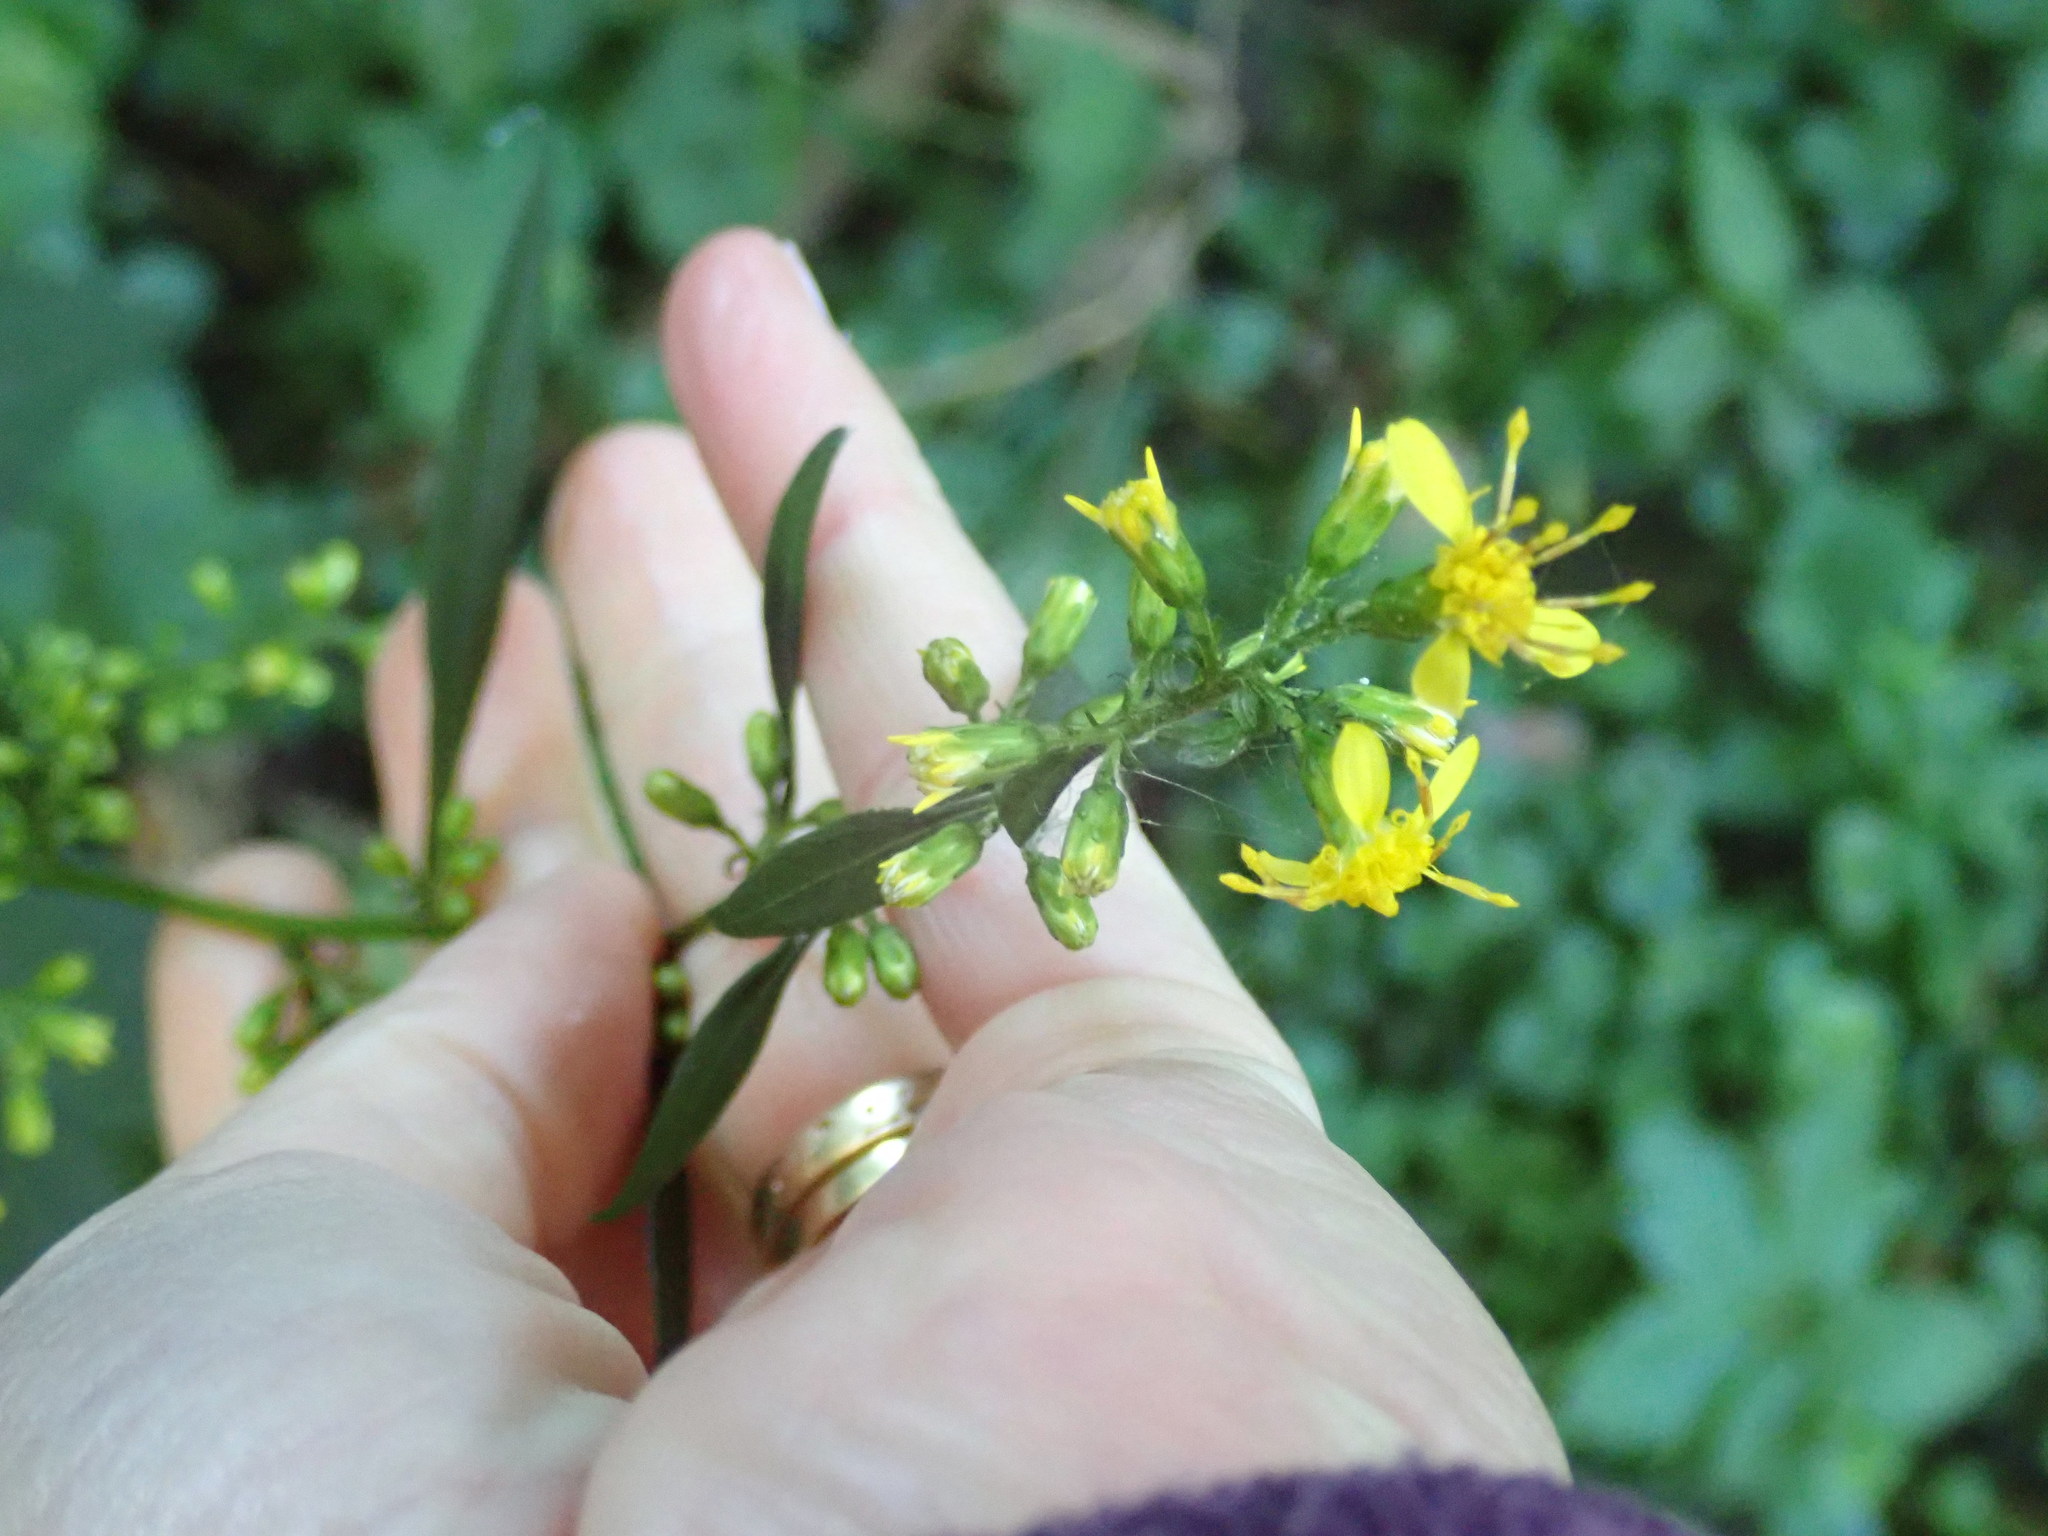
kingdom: Plantae
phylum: Tracheophyta
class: Magnoliopsida
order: Malpighiales
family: Hypericaceae
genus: Hypericum
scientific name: Hypericum perforatum
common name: Common st. johnswort
